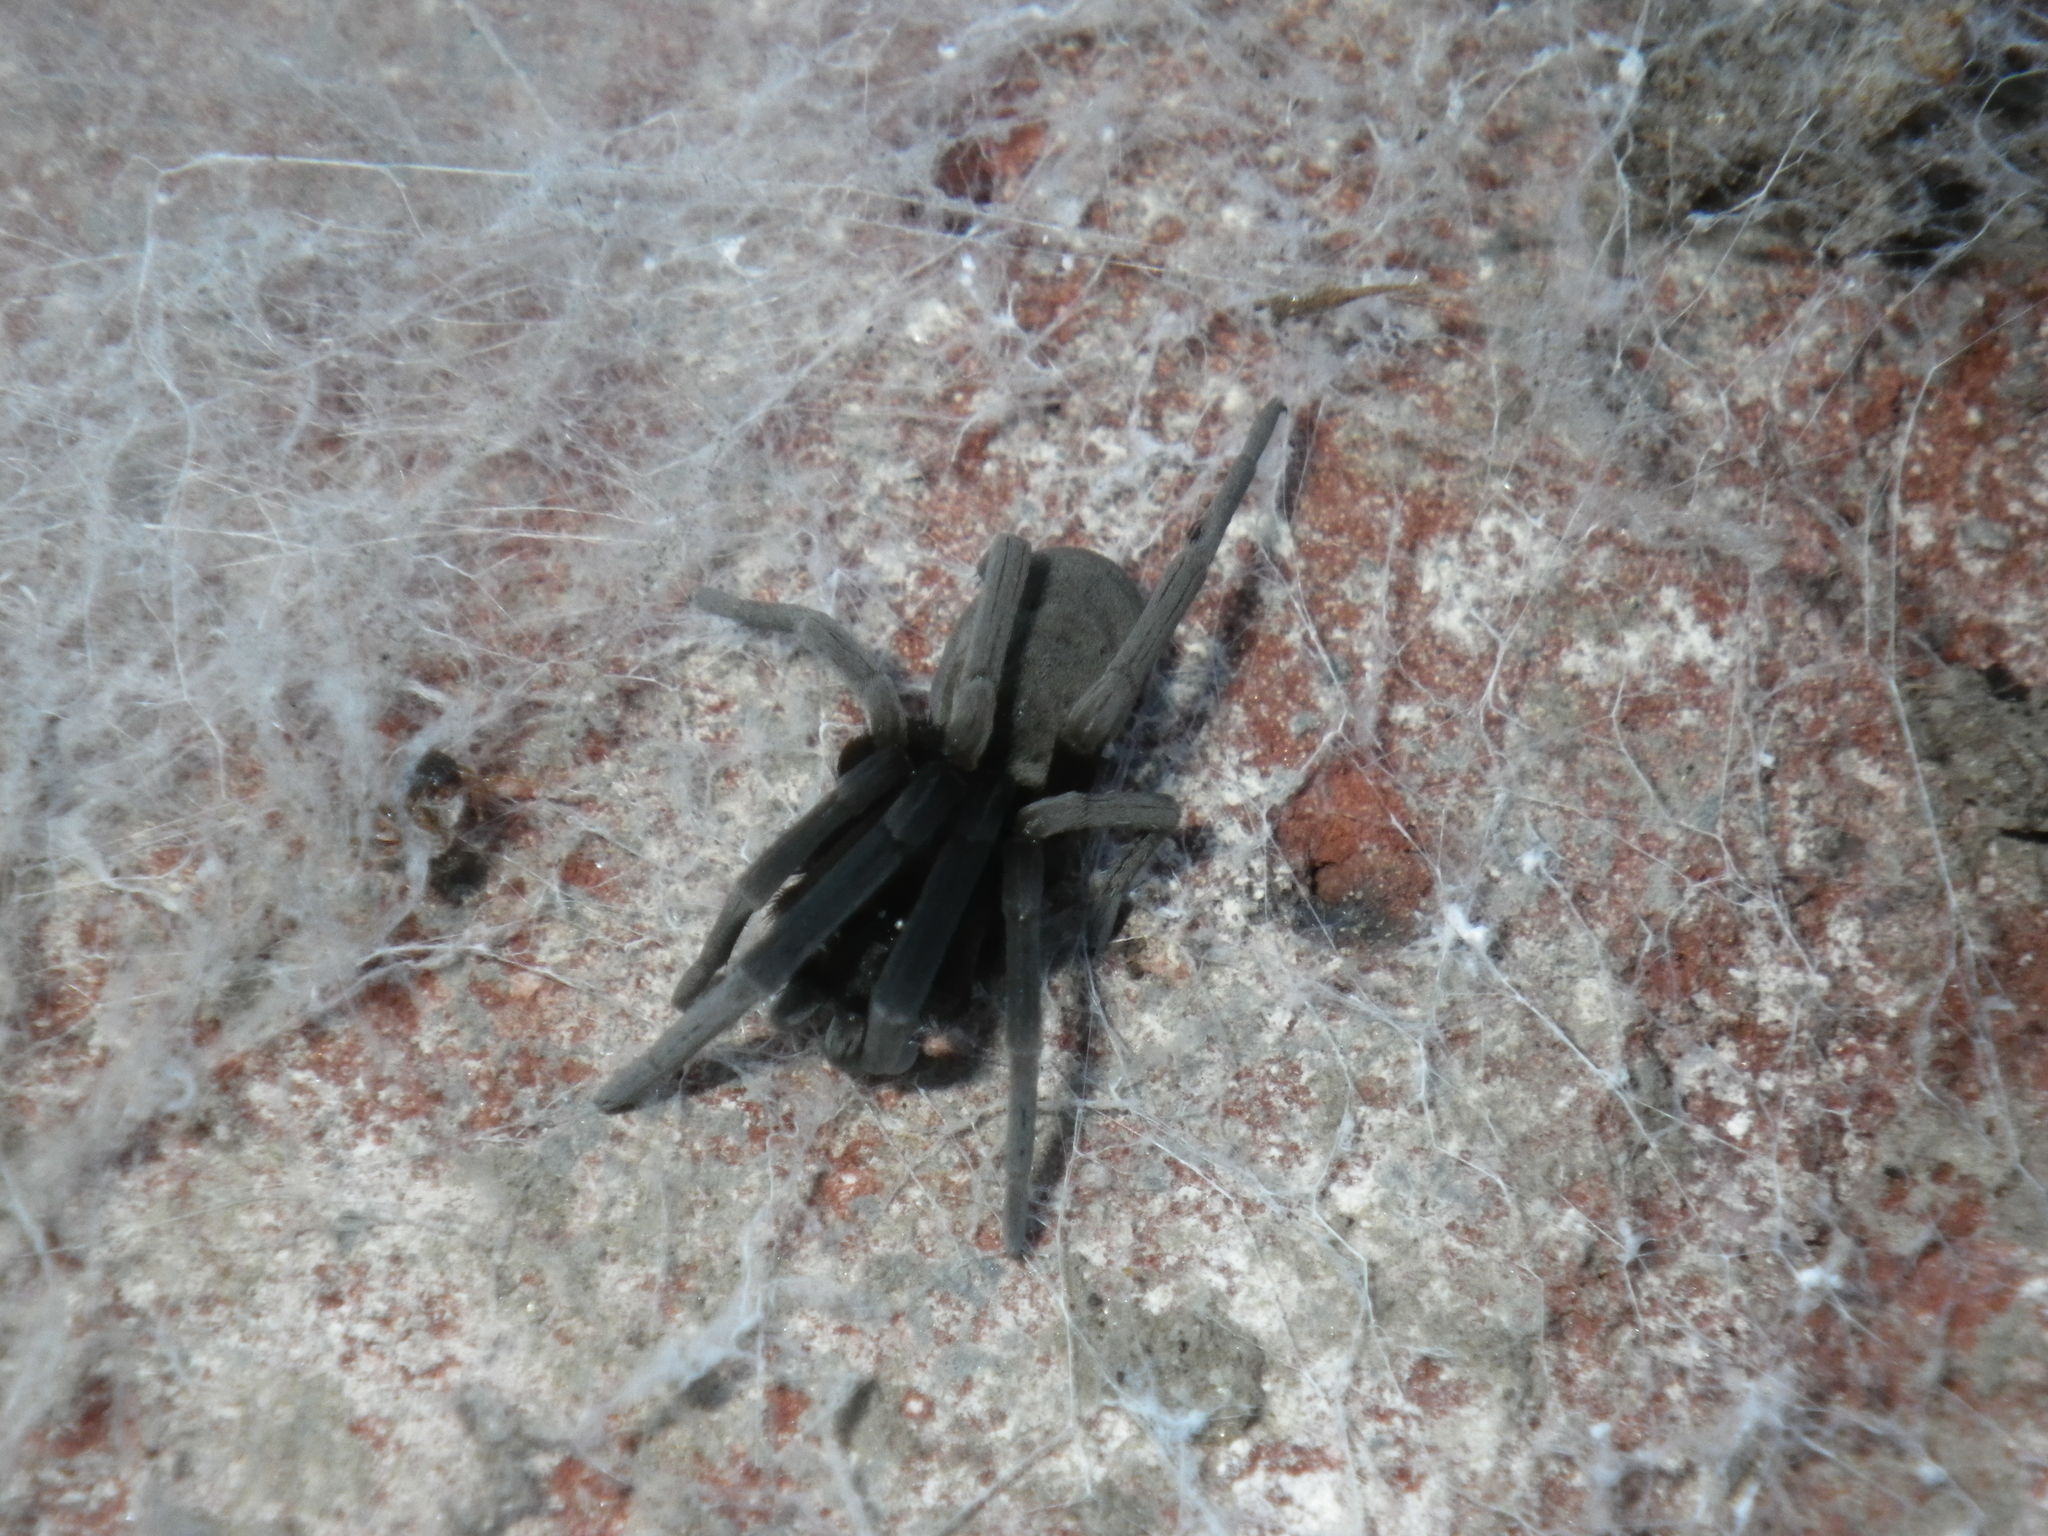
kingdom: Animalia
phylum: Arthropoda
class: Arachnida
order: Araneae
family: Filistatidae
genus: Kukulcania
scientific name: Kukulcania geophila
